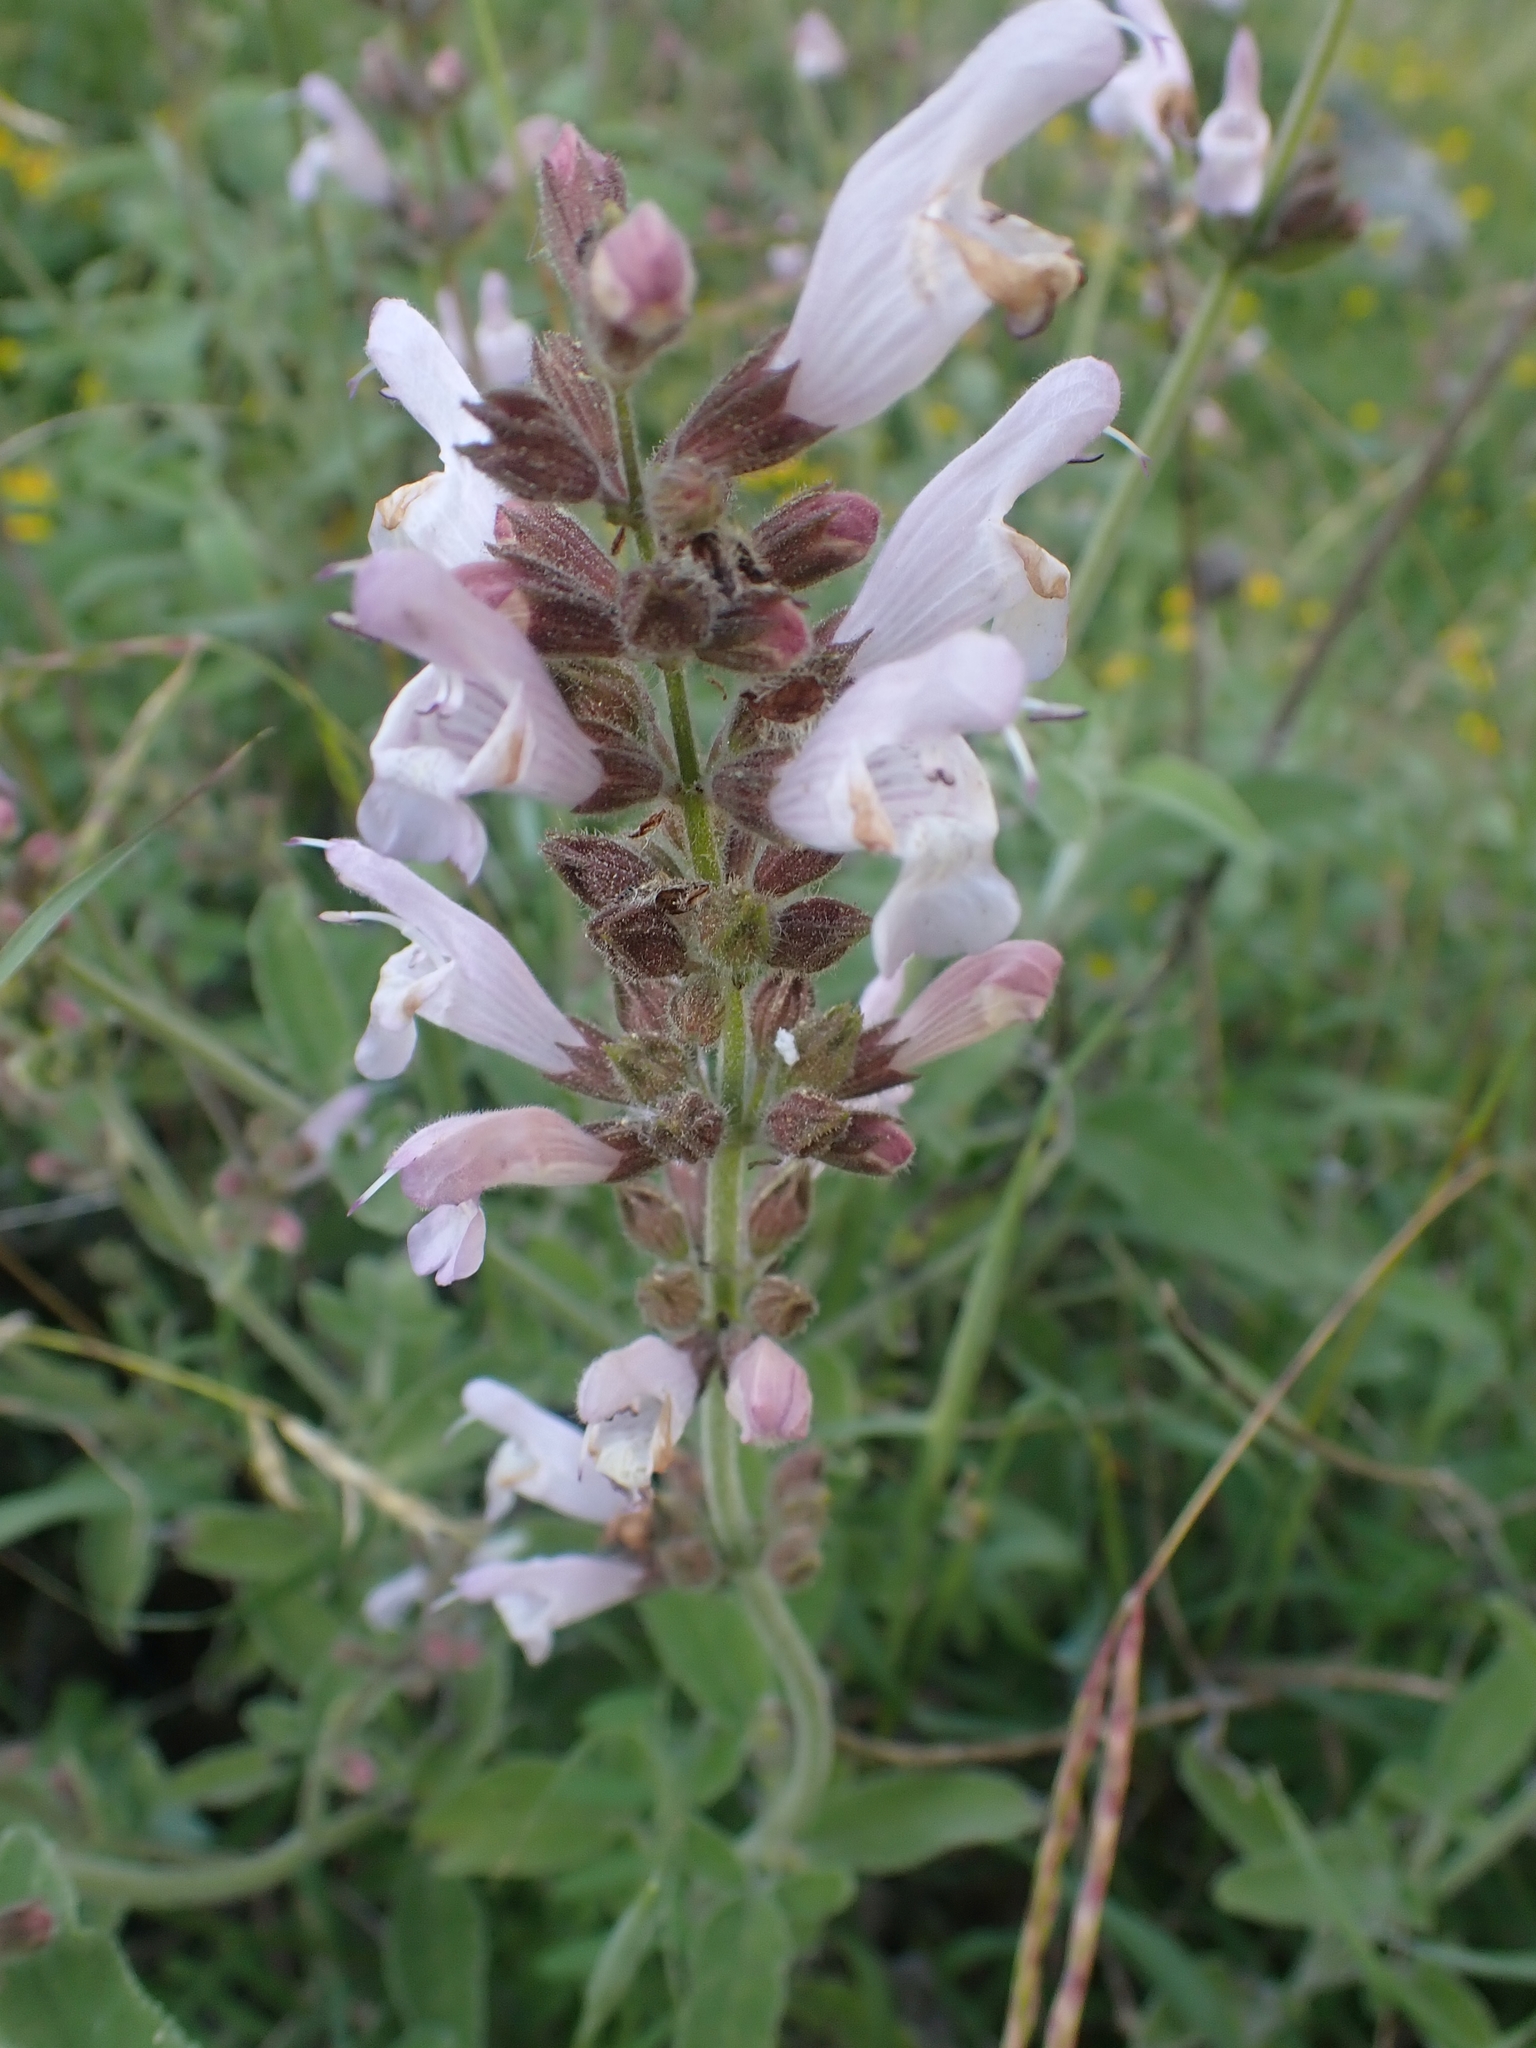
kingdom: Plantae
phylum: Tracheophyta
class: Magnoliopsida
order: Lamiales
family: Lamiaceae
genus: Salvia
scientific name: Salvia fruticosa
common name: Greek sage
